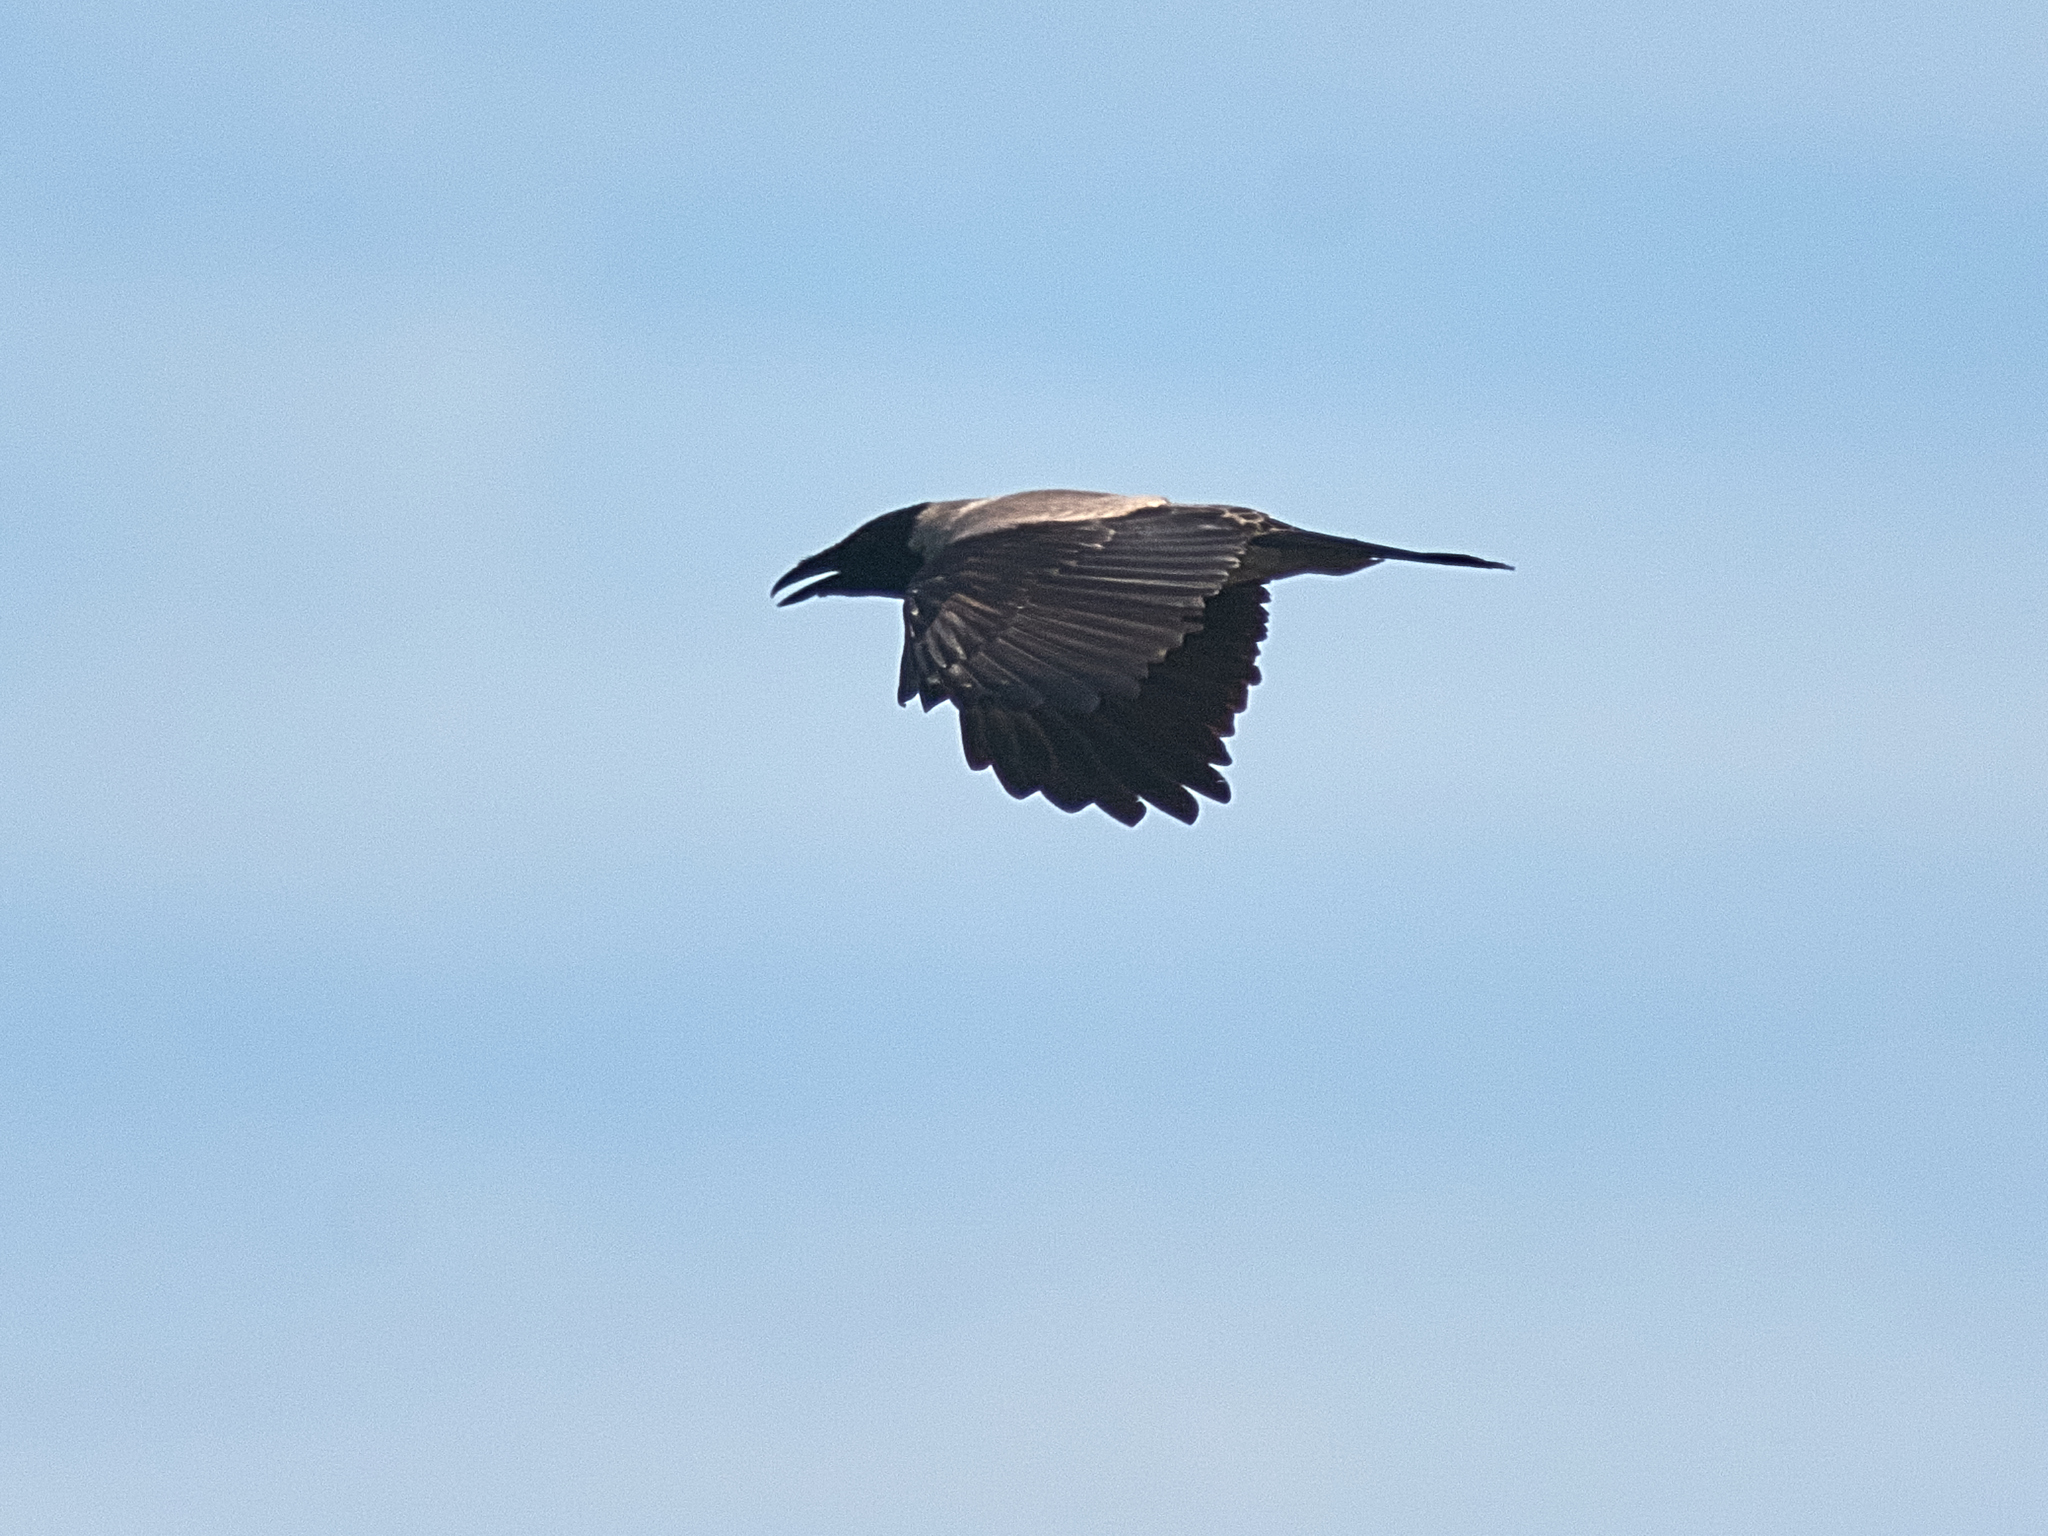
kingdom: Animalia
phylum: Chordata
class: Aves
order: Passeriformes
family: Corvidae
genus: Corvus
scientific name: Corvus cornix
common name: Hooded crow
